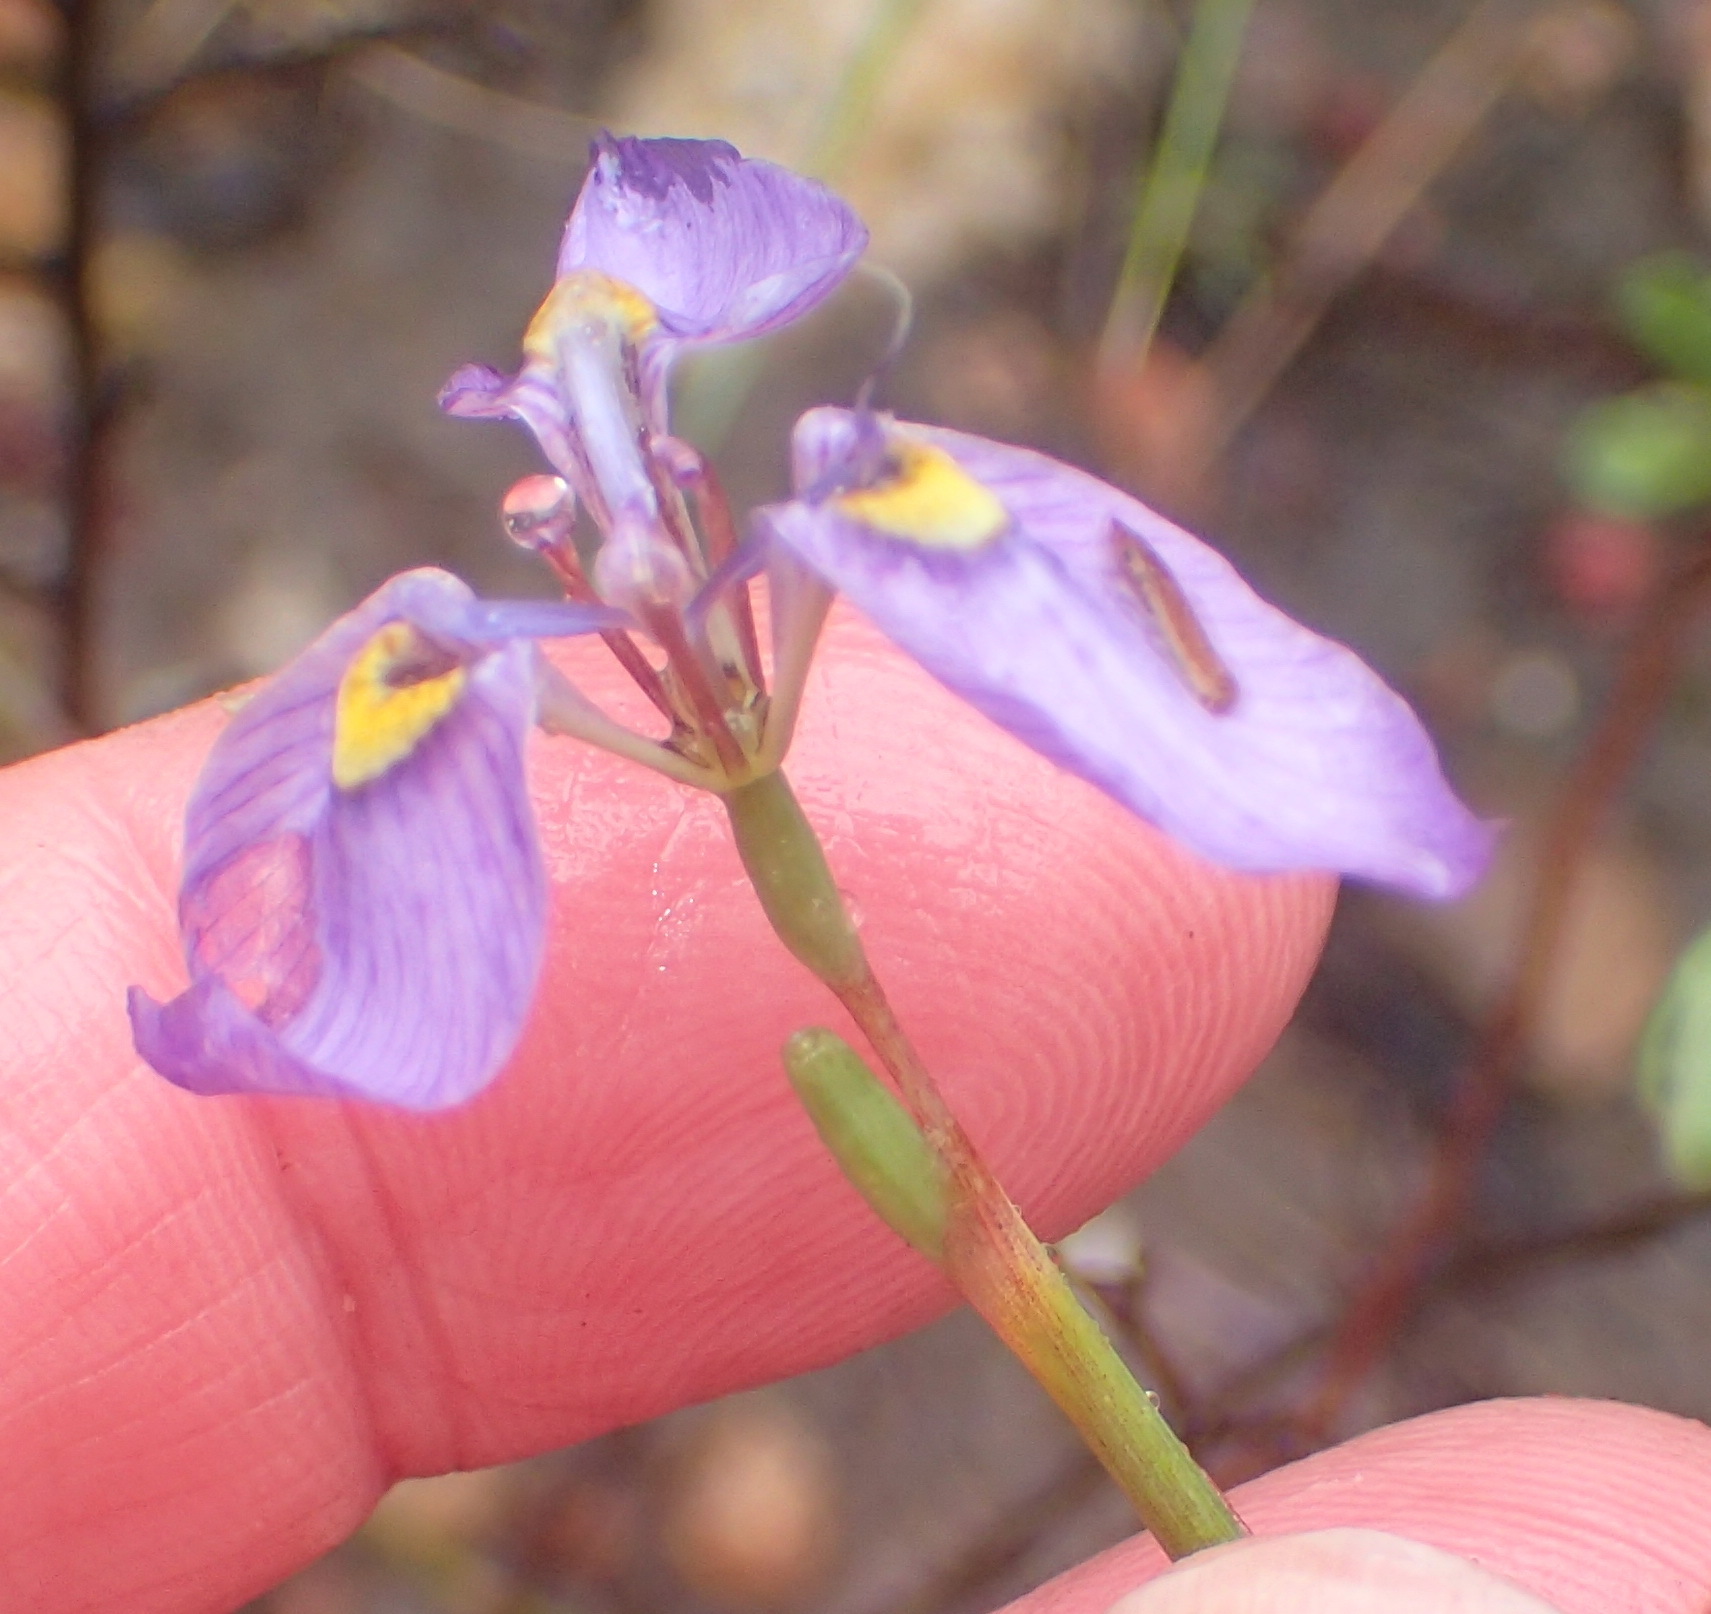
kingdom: Plantae
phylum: Tracheophyta
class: Liliopsida
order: Asparagales
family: Iridaceae
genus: Moraea
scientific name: Moraea algoensis
